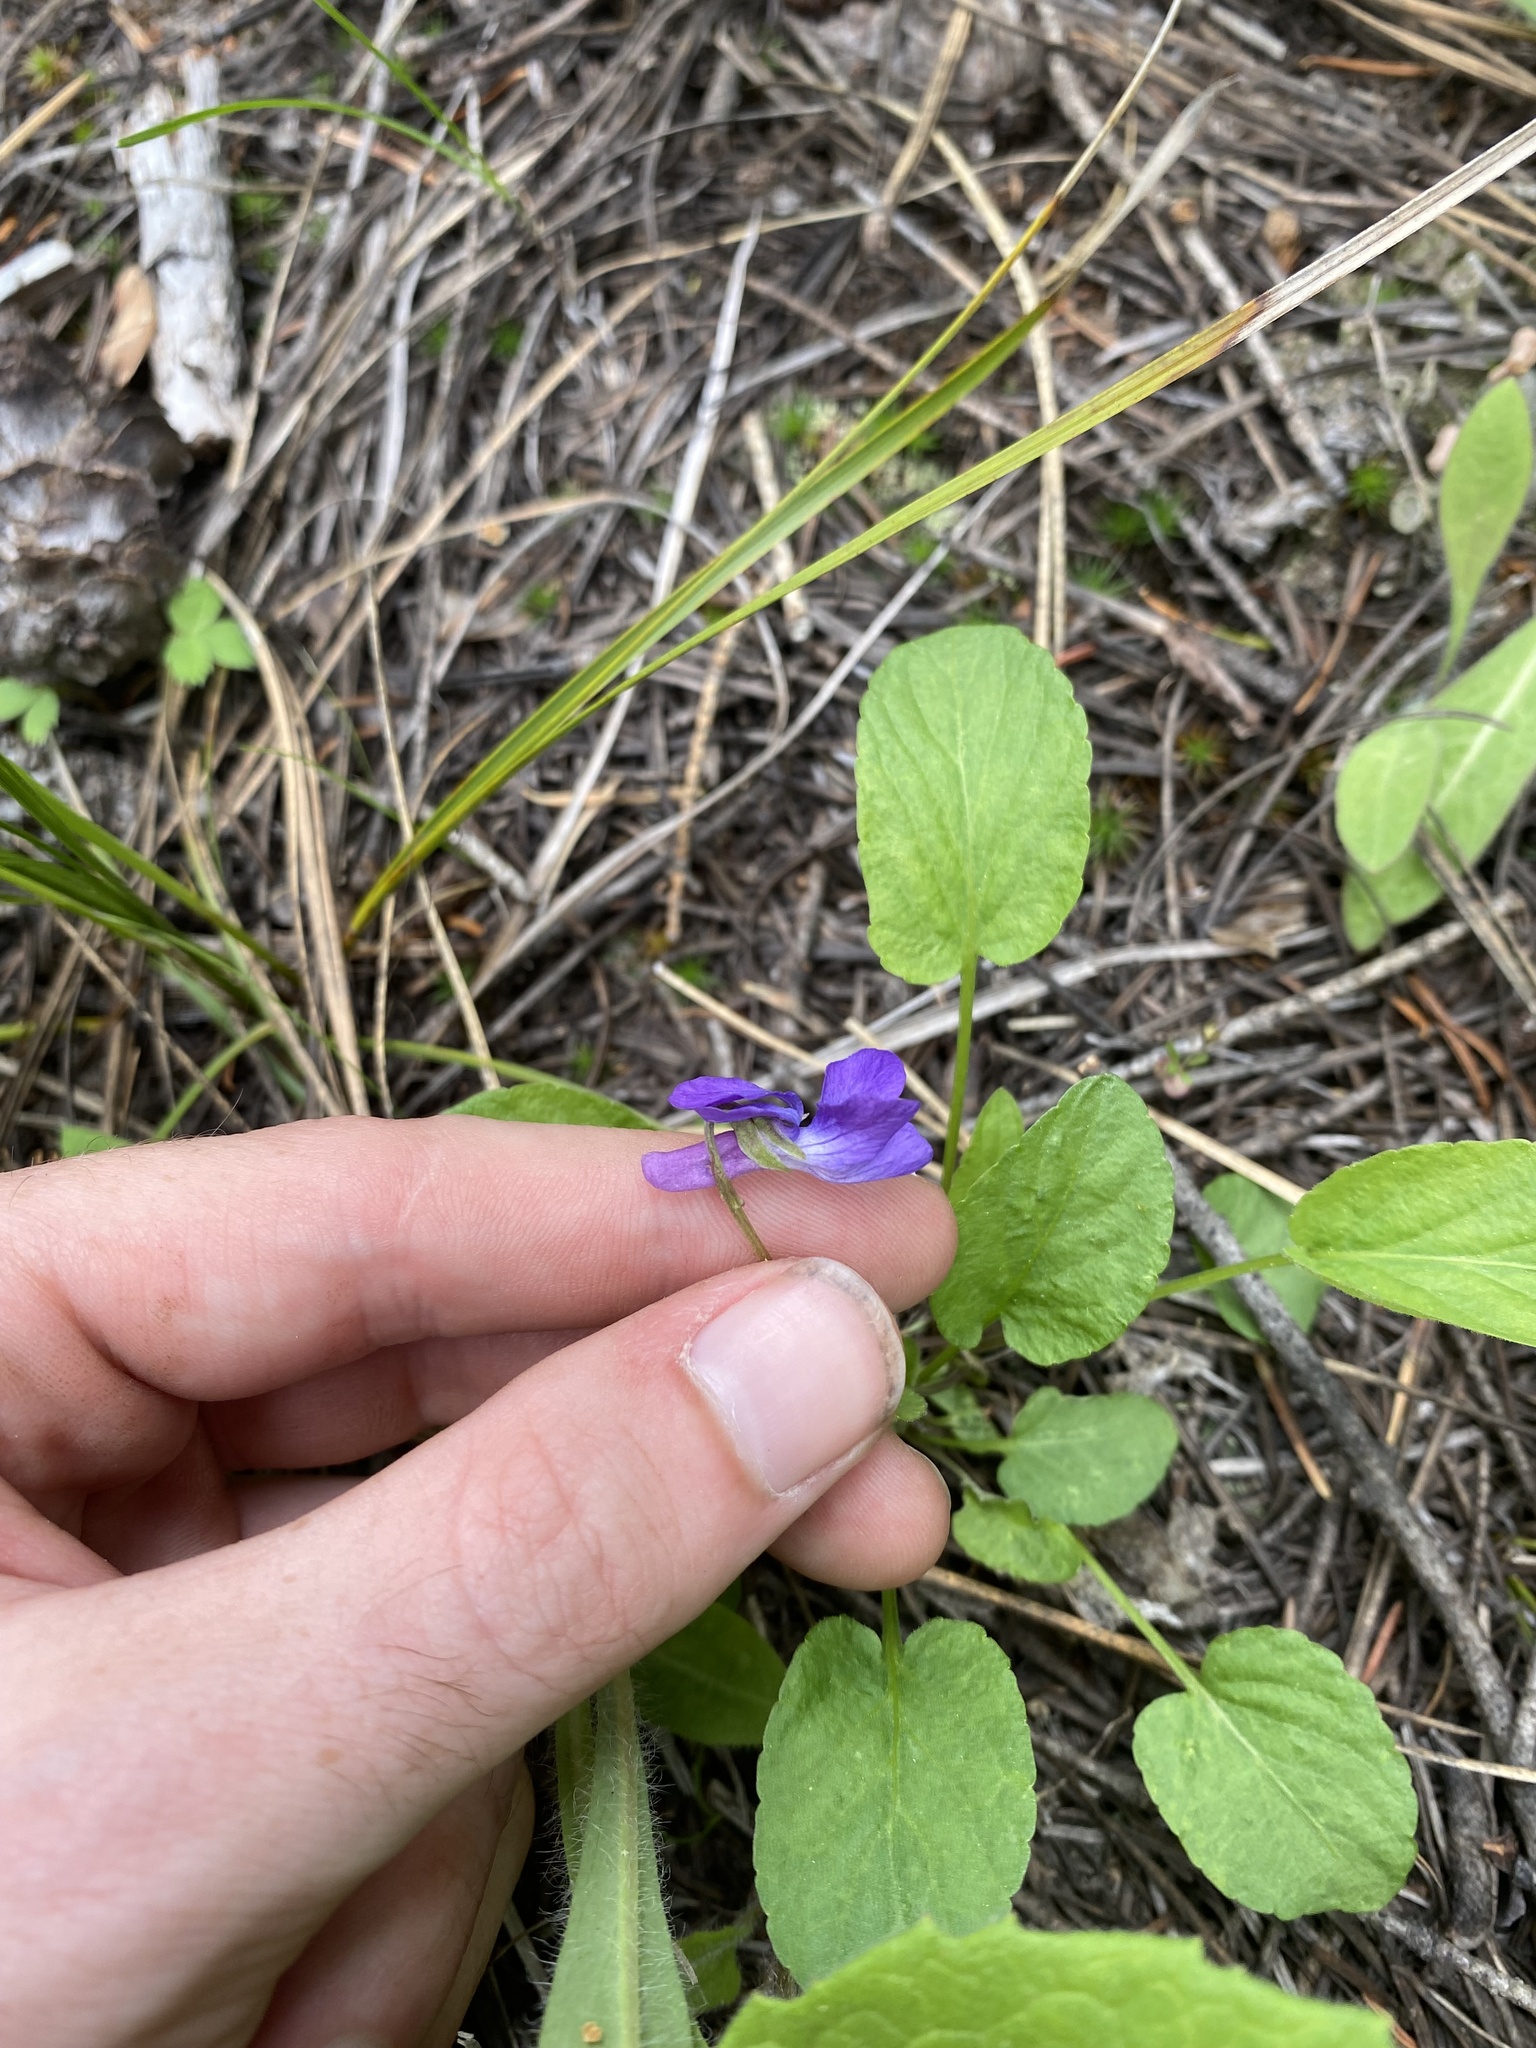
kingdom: Plantae
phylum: Tracheophyta
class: Magnoliopsida
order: Malpighiales
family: Violaceae
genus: Viola
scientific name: Viola adunca
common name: Sand violet
